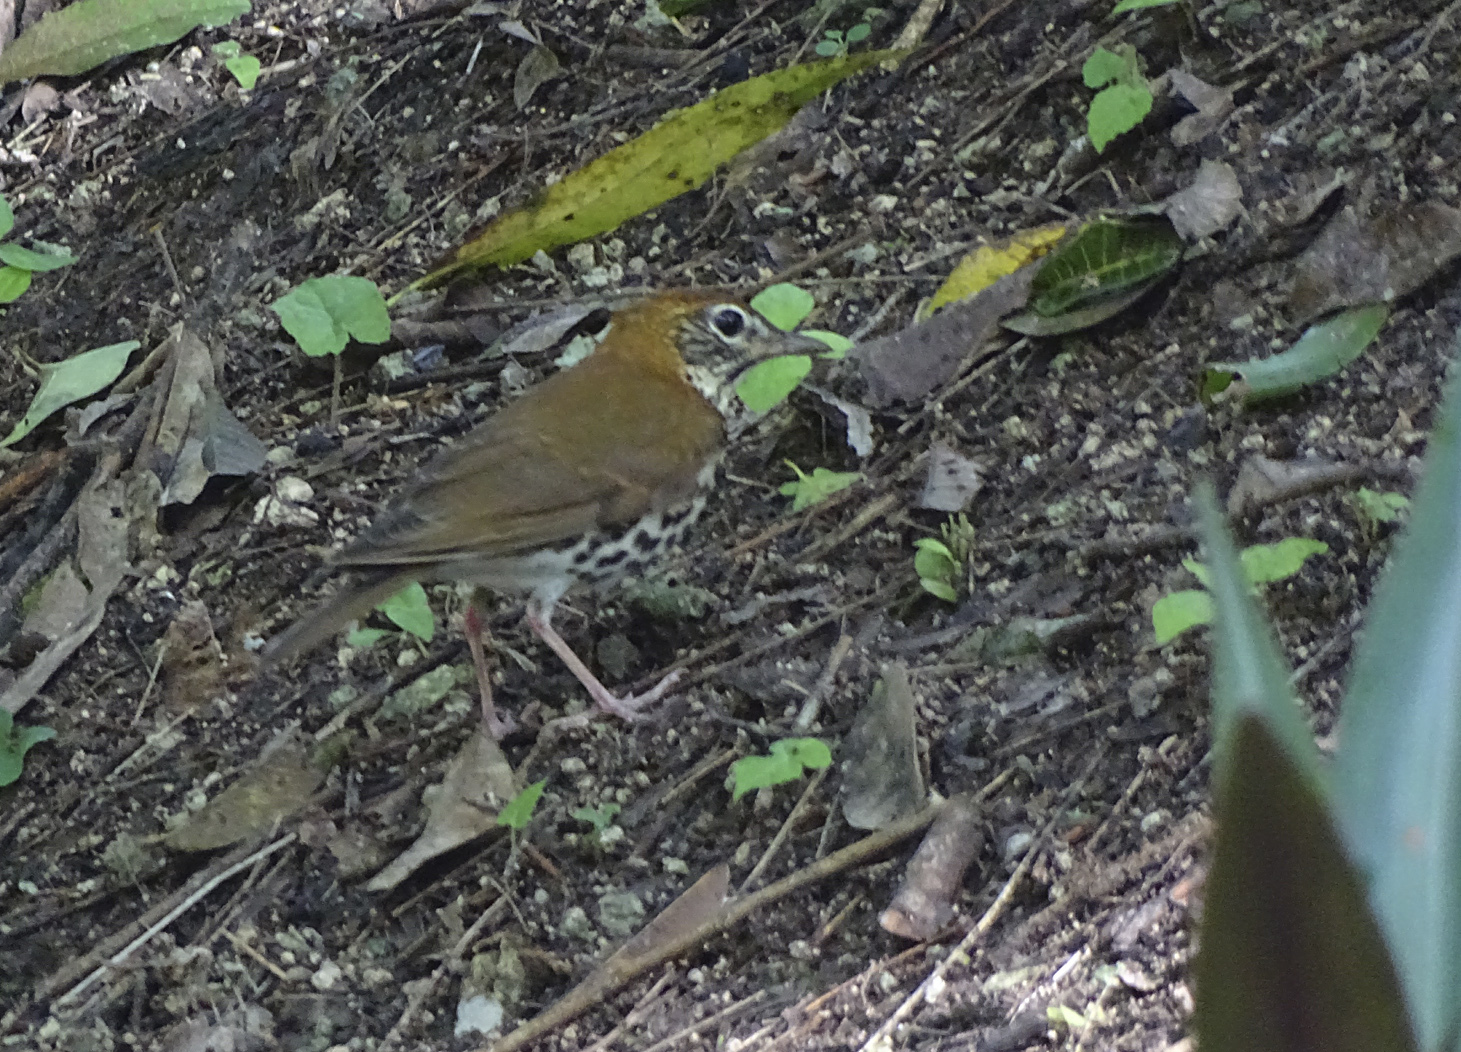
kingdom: Animalia
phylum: Chordata
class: Aves
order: Passeriformes
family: Turdidae
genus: Hylocichla
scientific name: Hylocichla mustelina
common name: Wood thrush
